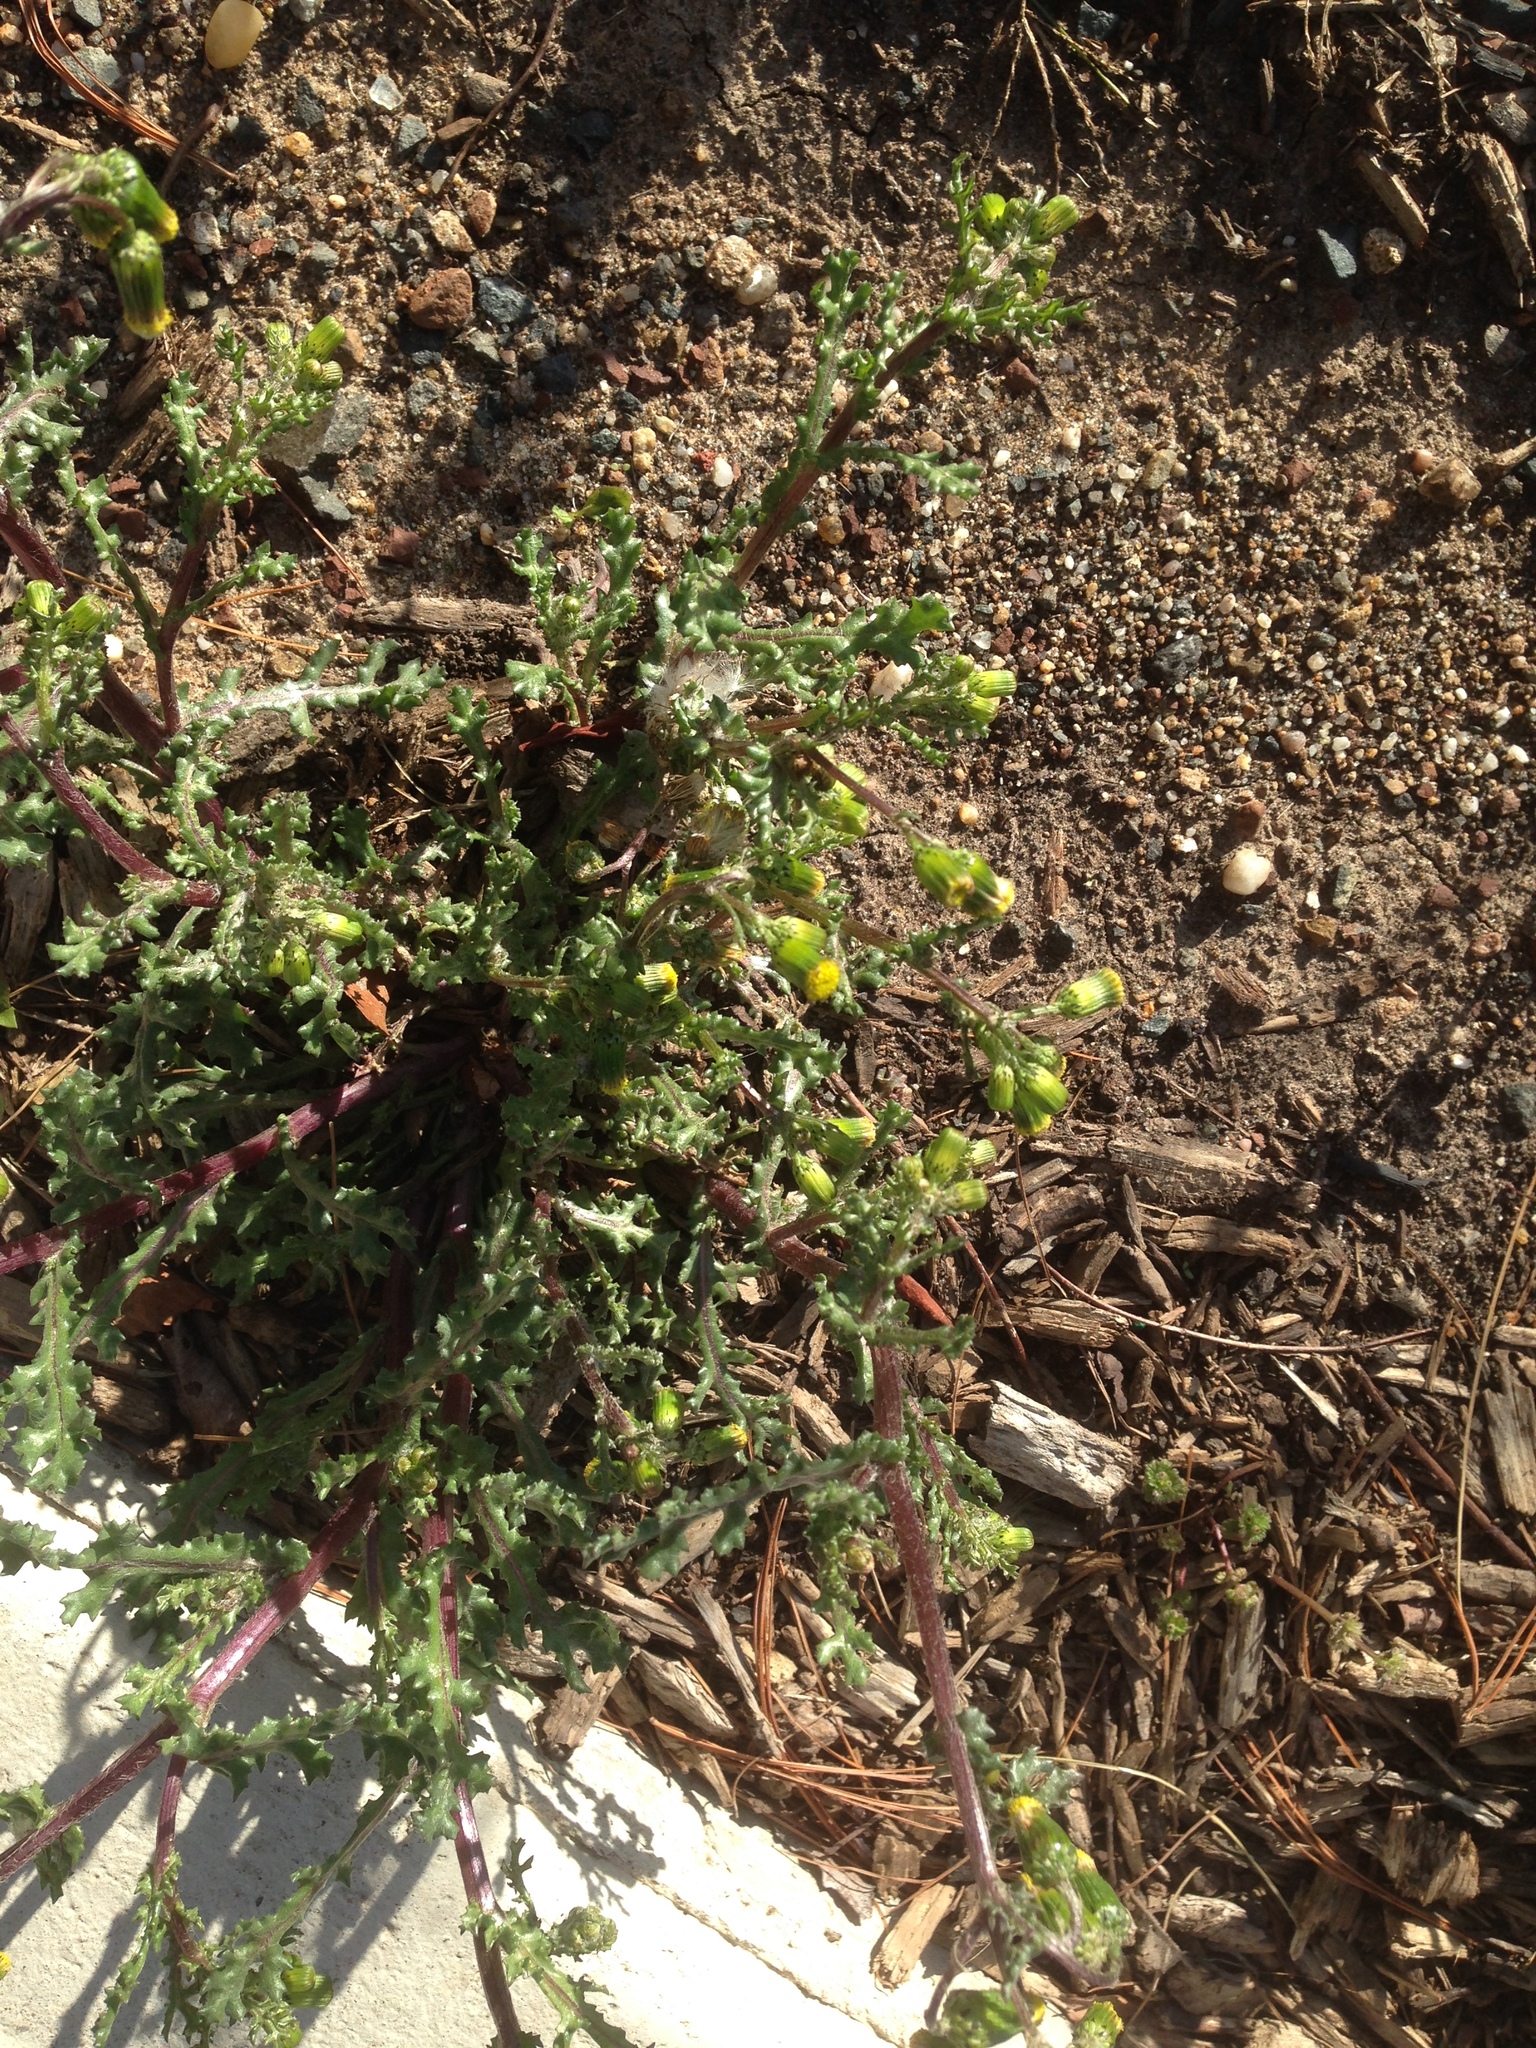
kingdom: Plantae
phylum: Tracheophyta
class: Magnoliopsida
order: Asterales
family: Asteraceae
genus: Senecio
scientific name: Senecio vulgaris
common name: Old-man-in-the-spring
